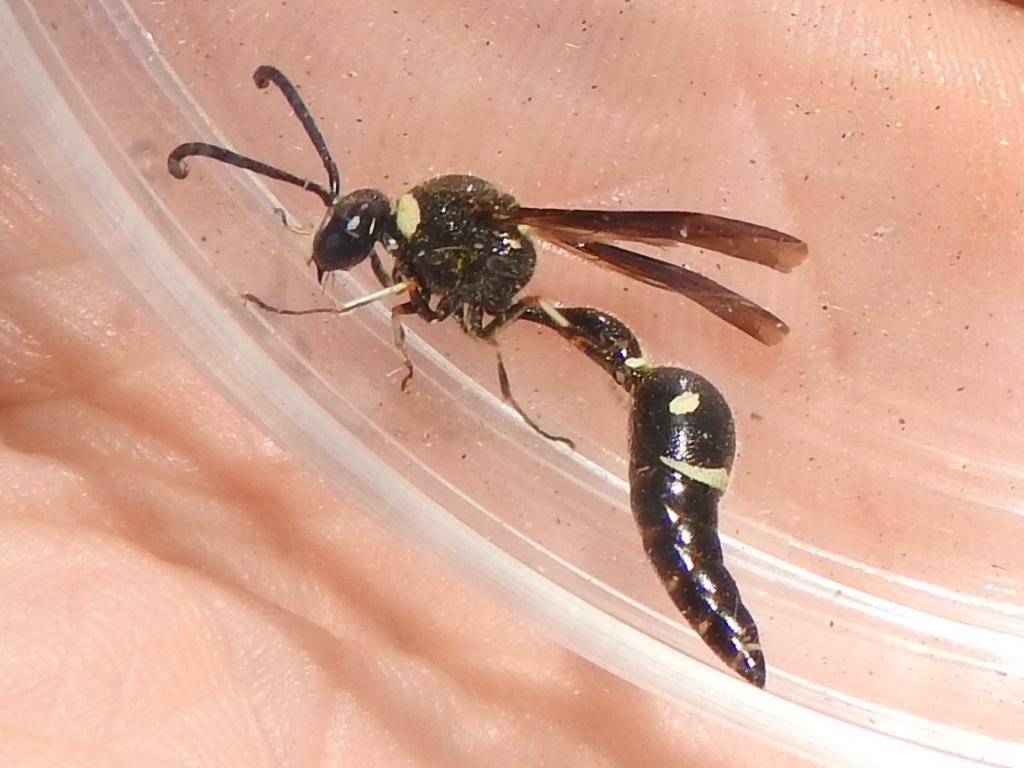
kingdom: Animalia
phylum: Arthropoda
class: Insecta
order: Hymenoptera
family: Vespidae
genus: Eumenes
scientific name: Eumenes fraternus
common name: Fraternal potter wasp
